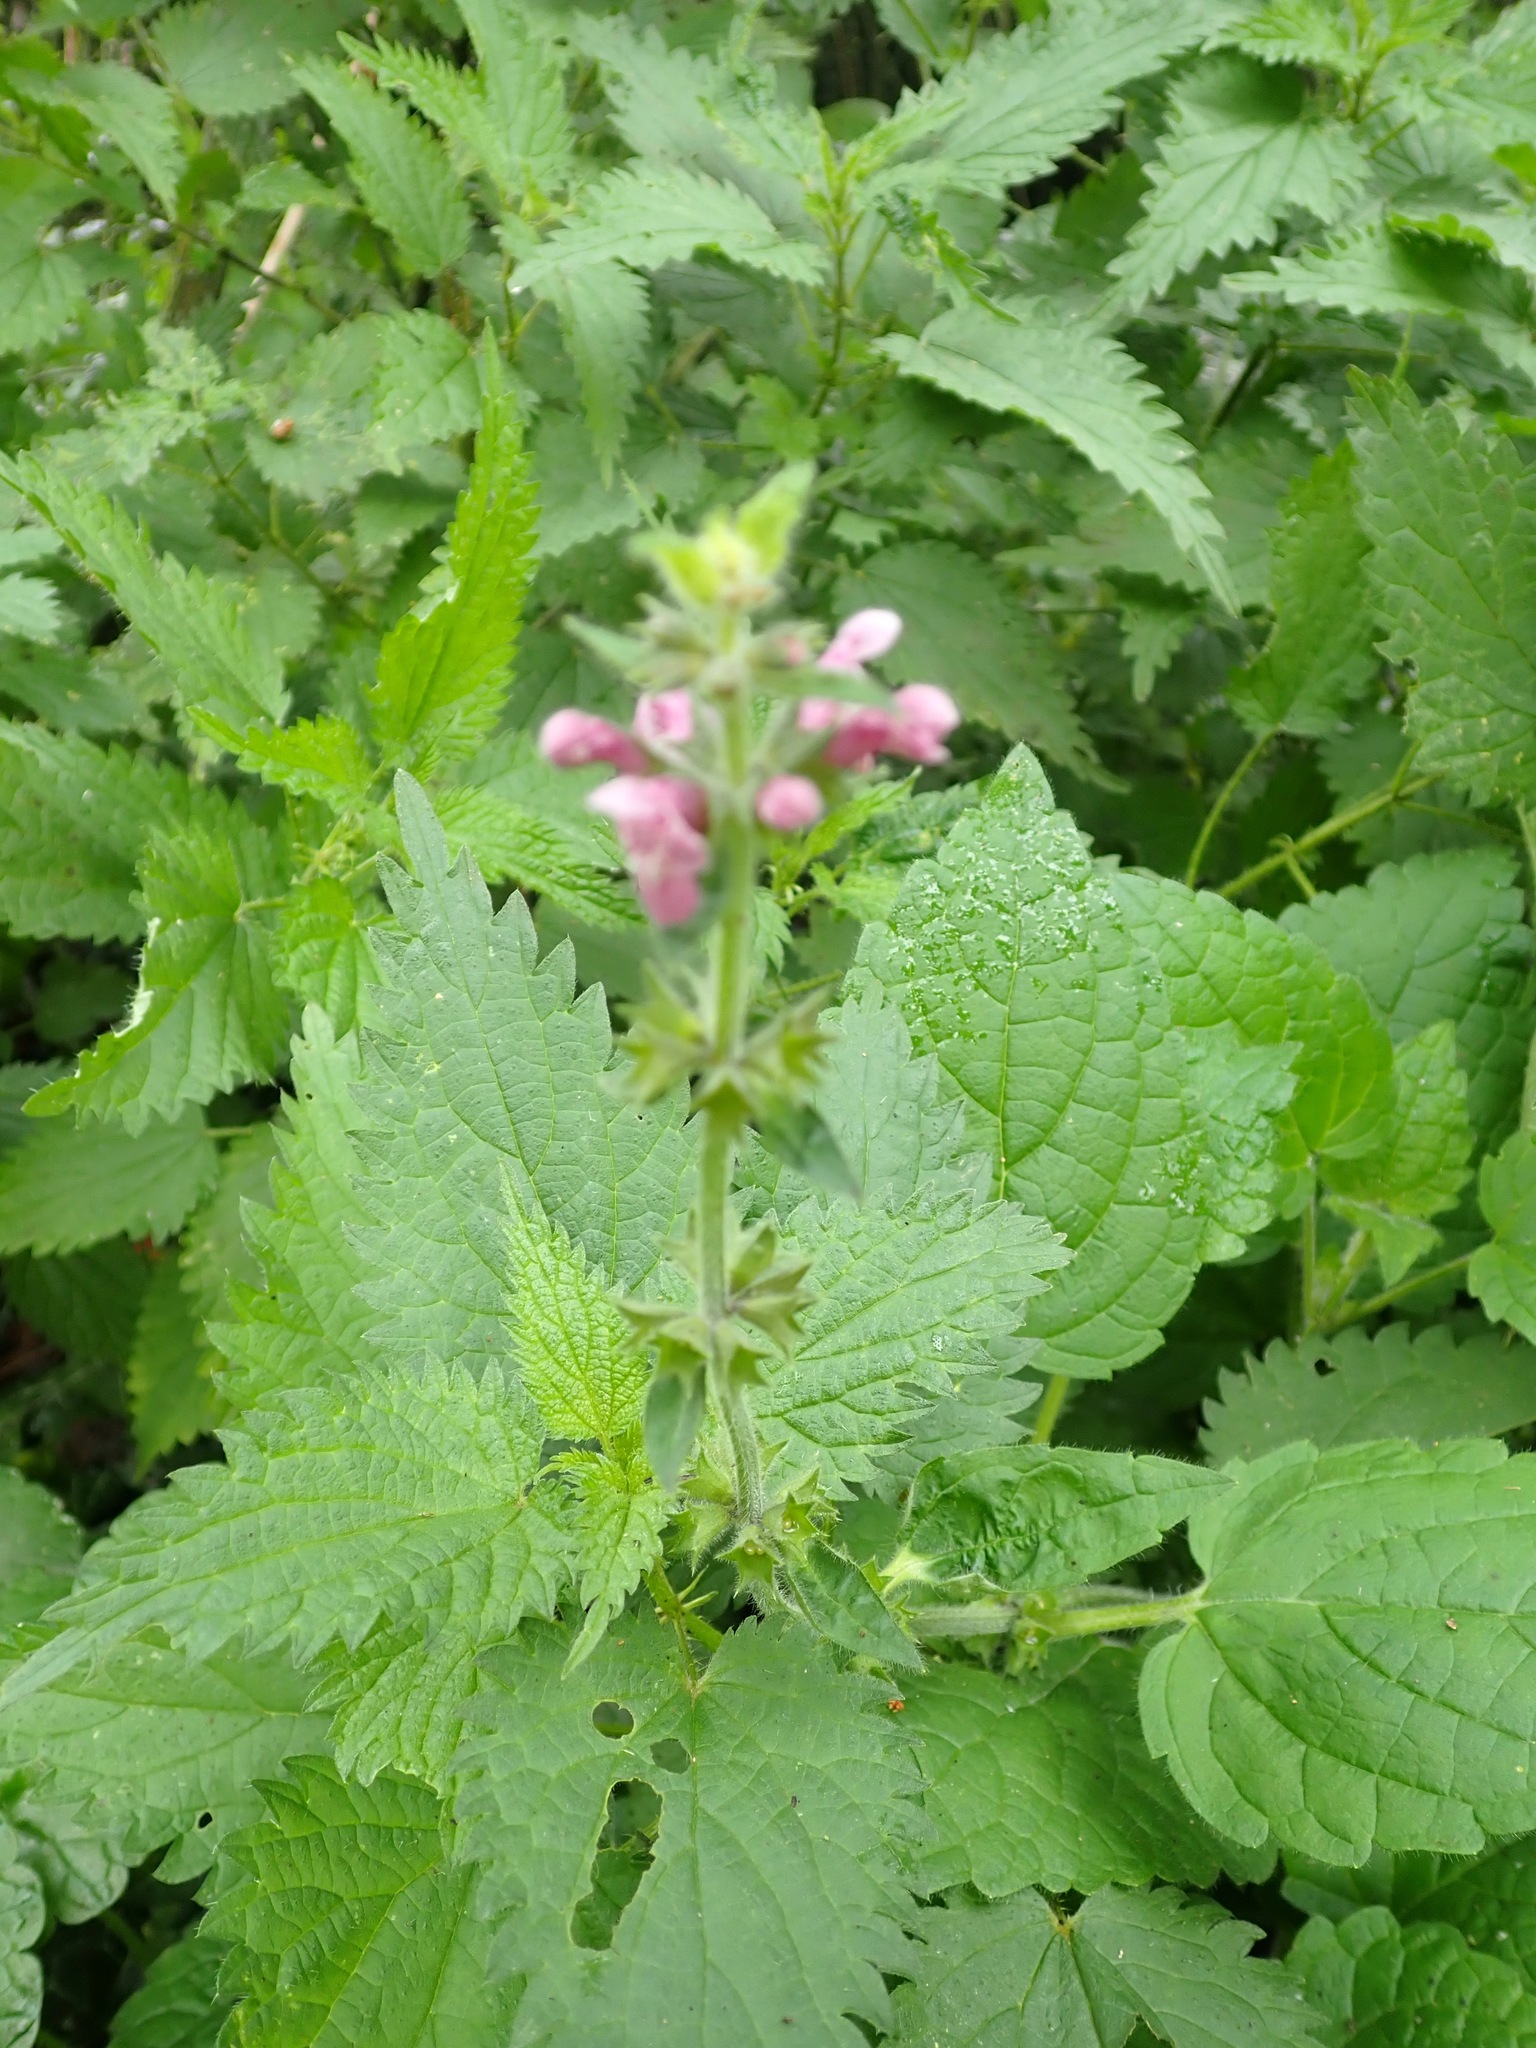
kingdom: Plantae
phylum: Tracheophyta
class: Magnoliopsida
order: Lamiales
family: Lamiaceae
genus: Stachys
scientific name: Stachys sylvatica
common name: Hedge woundwort
